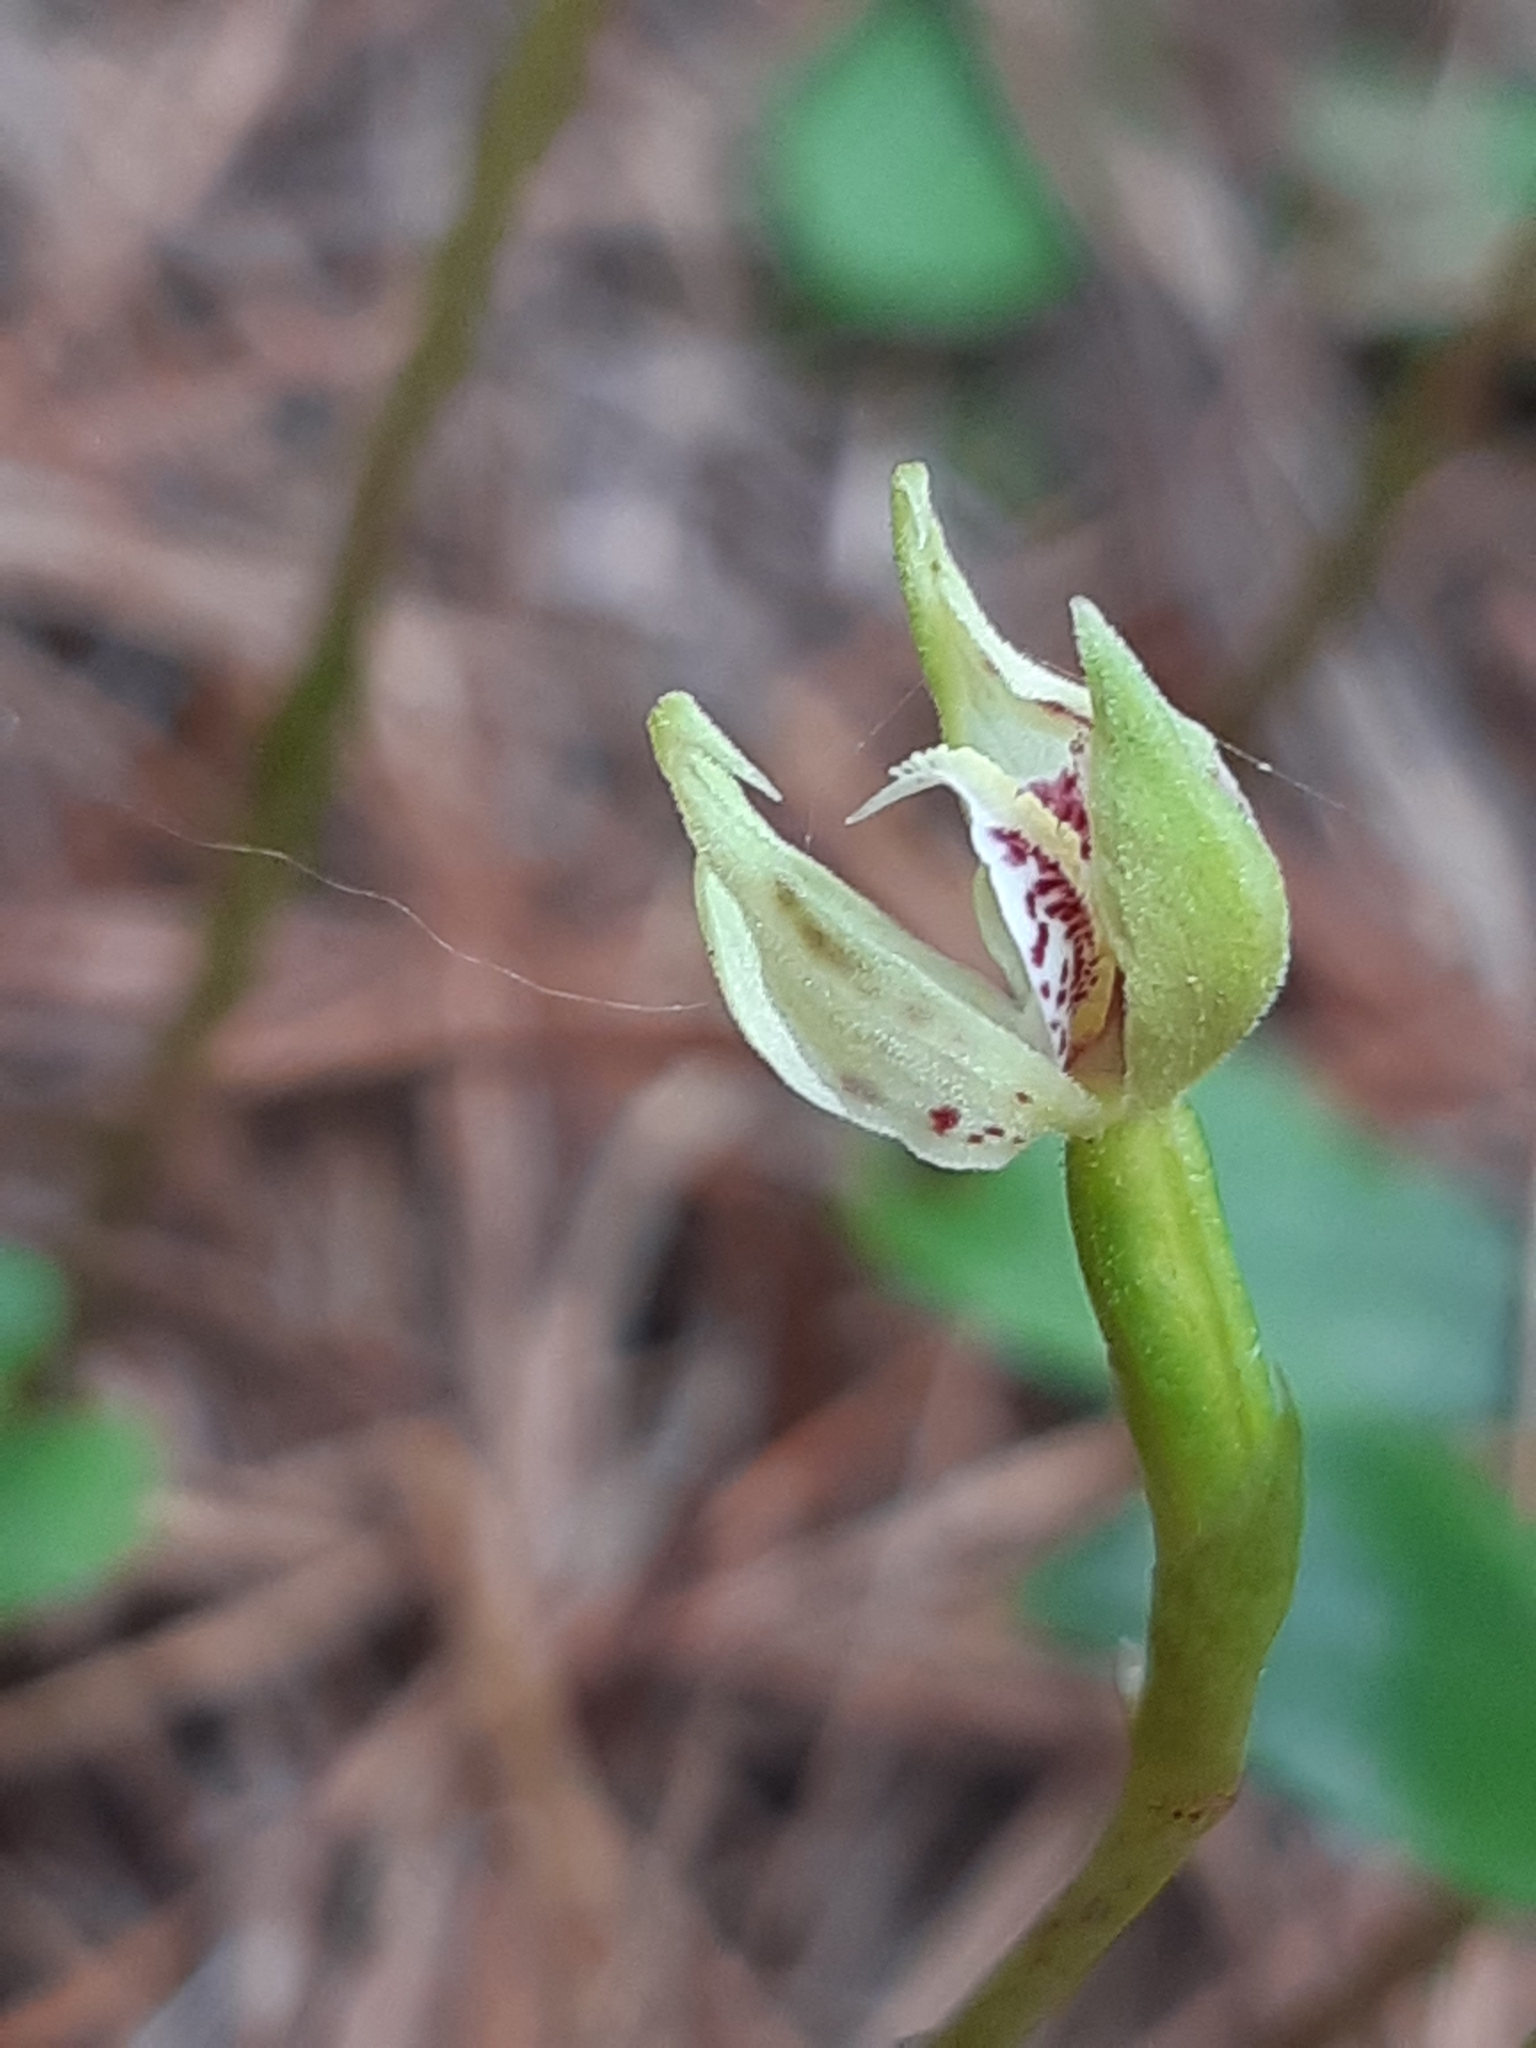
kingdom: Plantae
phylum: Tracheophyta
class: Liliopsida
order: Asparagales
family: Orchidaceae
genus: Adenochilus
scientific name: Adenochilus gracilis
